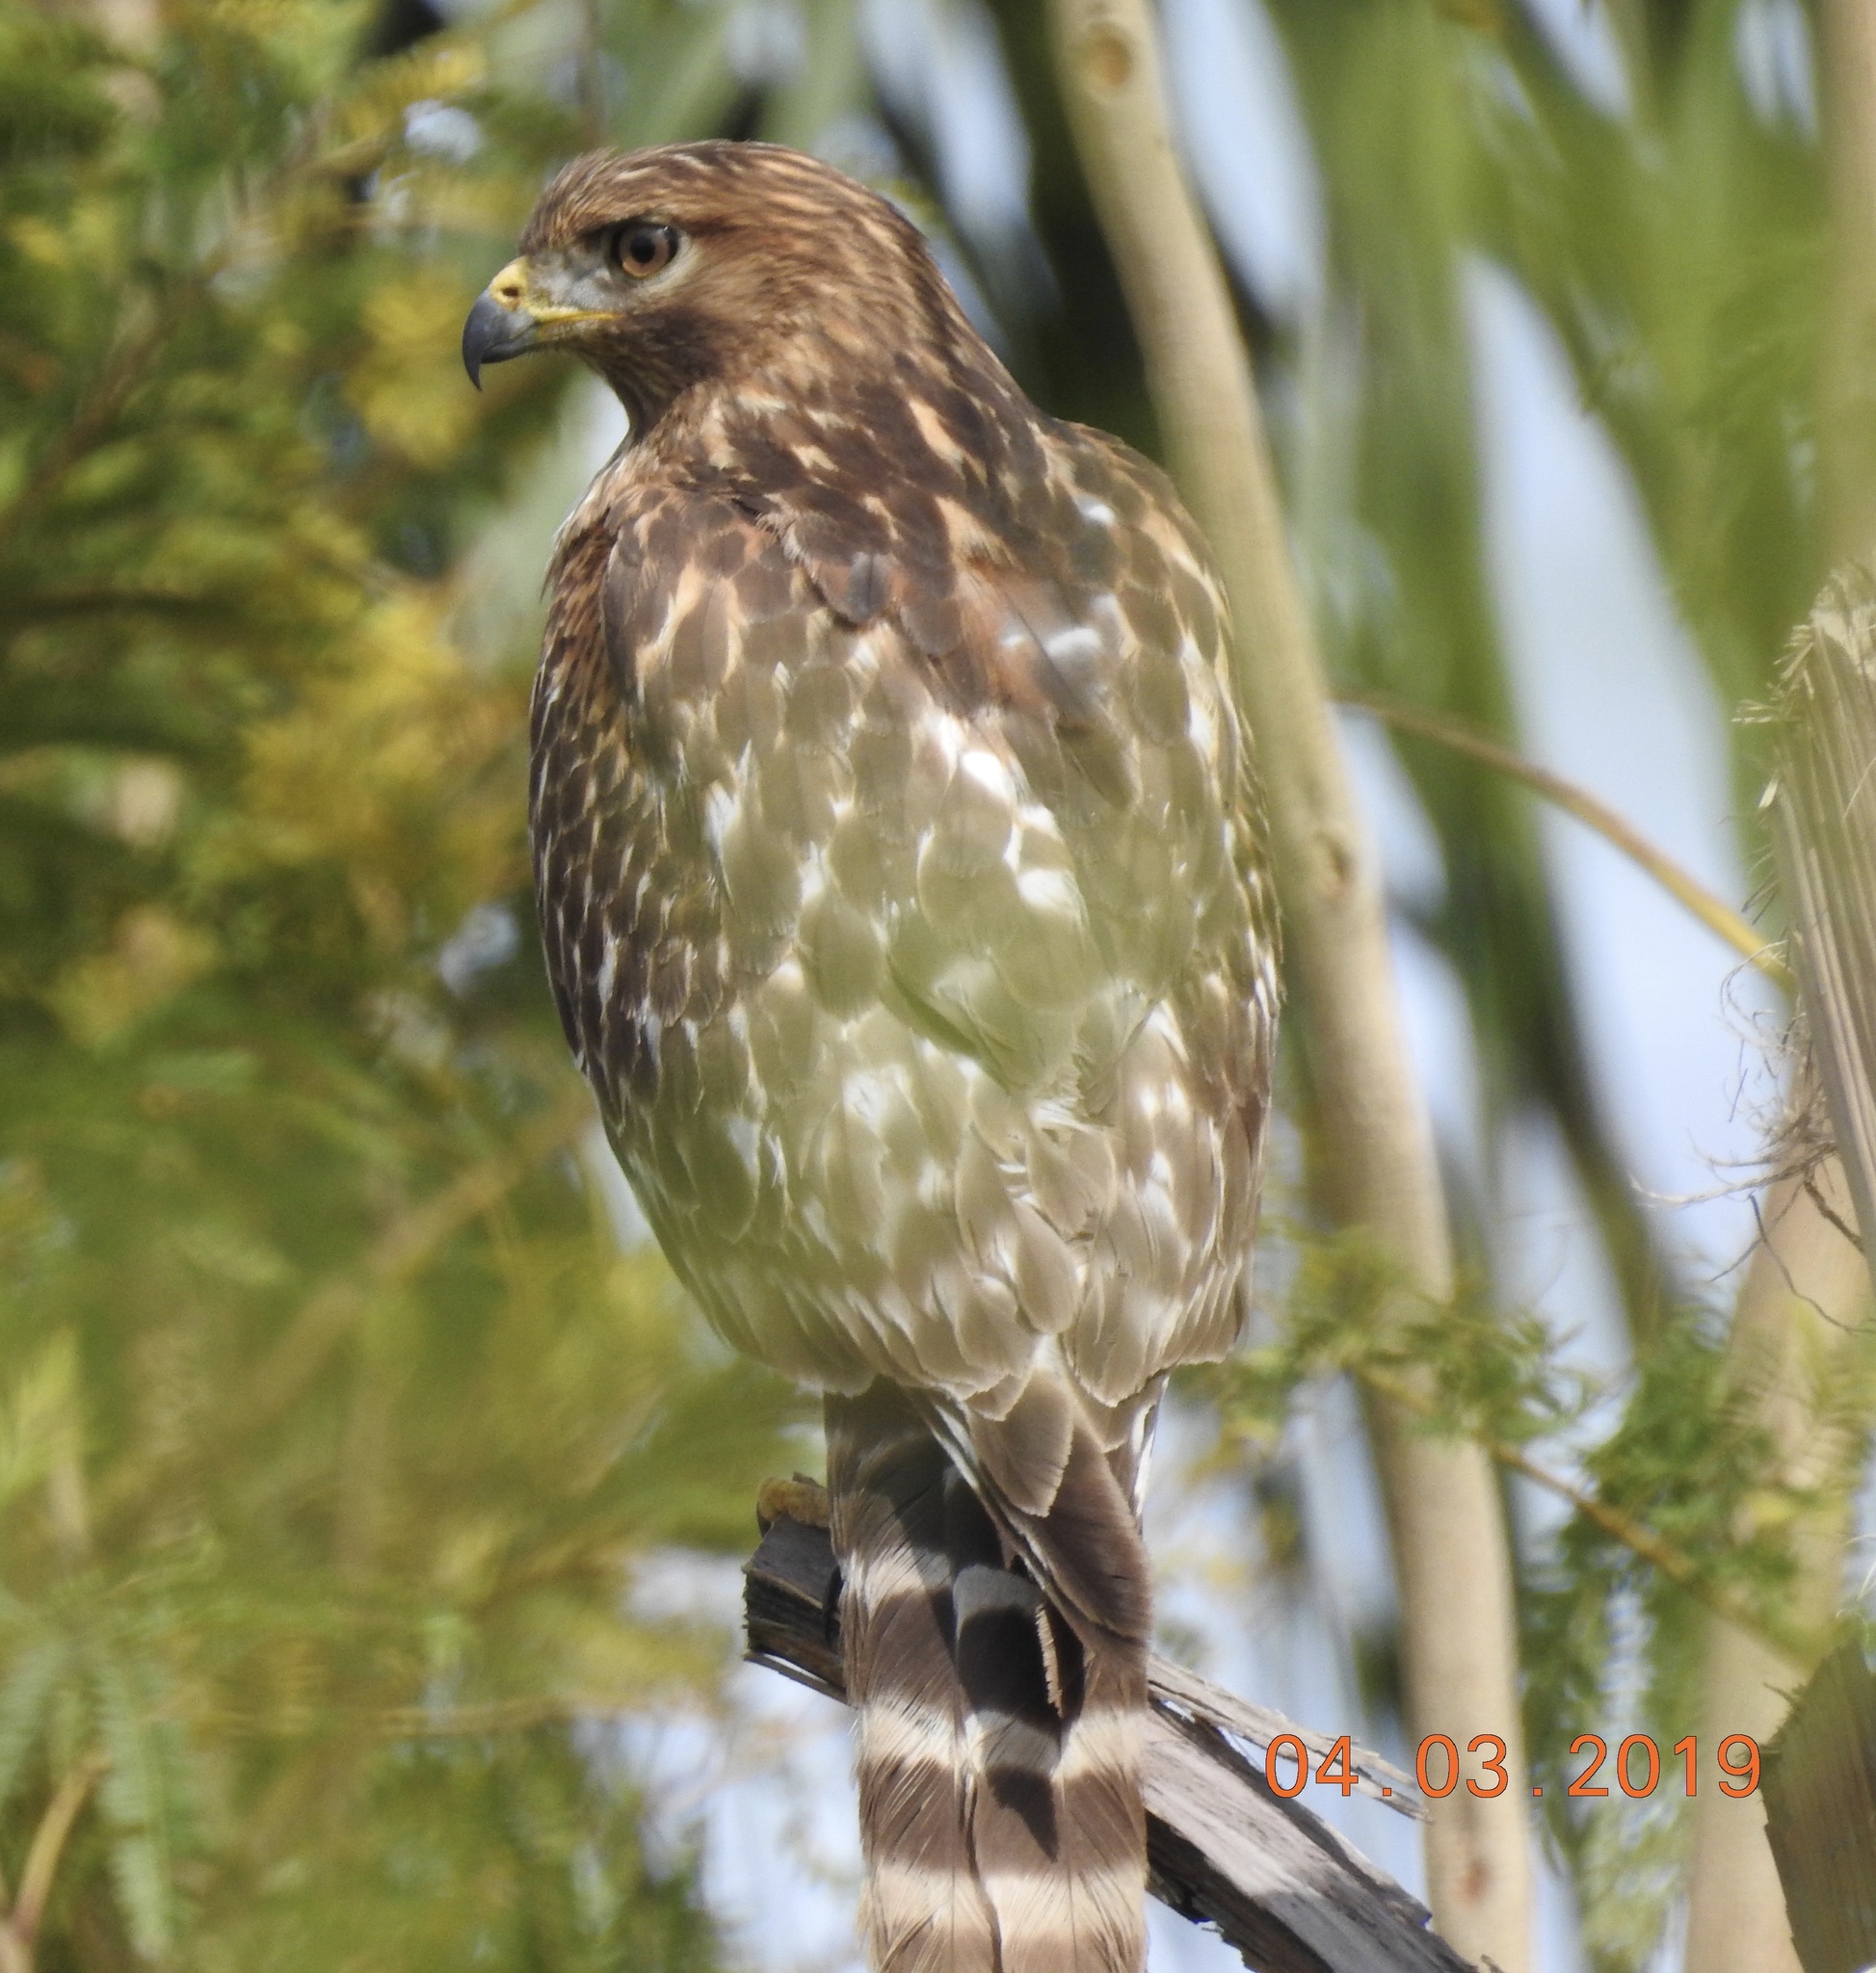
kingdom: Animalia
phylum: Chordata
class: Aves
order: Accipitriformes
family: Accipitridae
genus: Buteo
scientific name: Buteo lineatus
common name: Red-shouldered hawk
